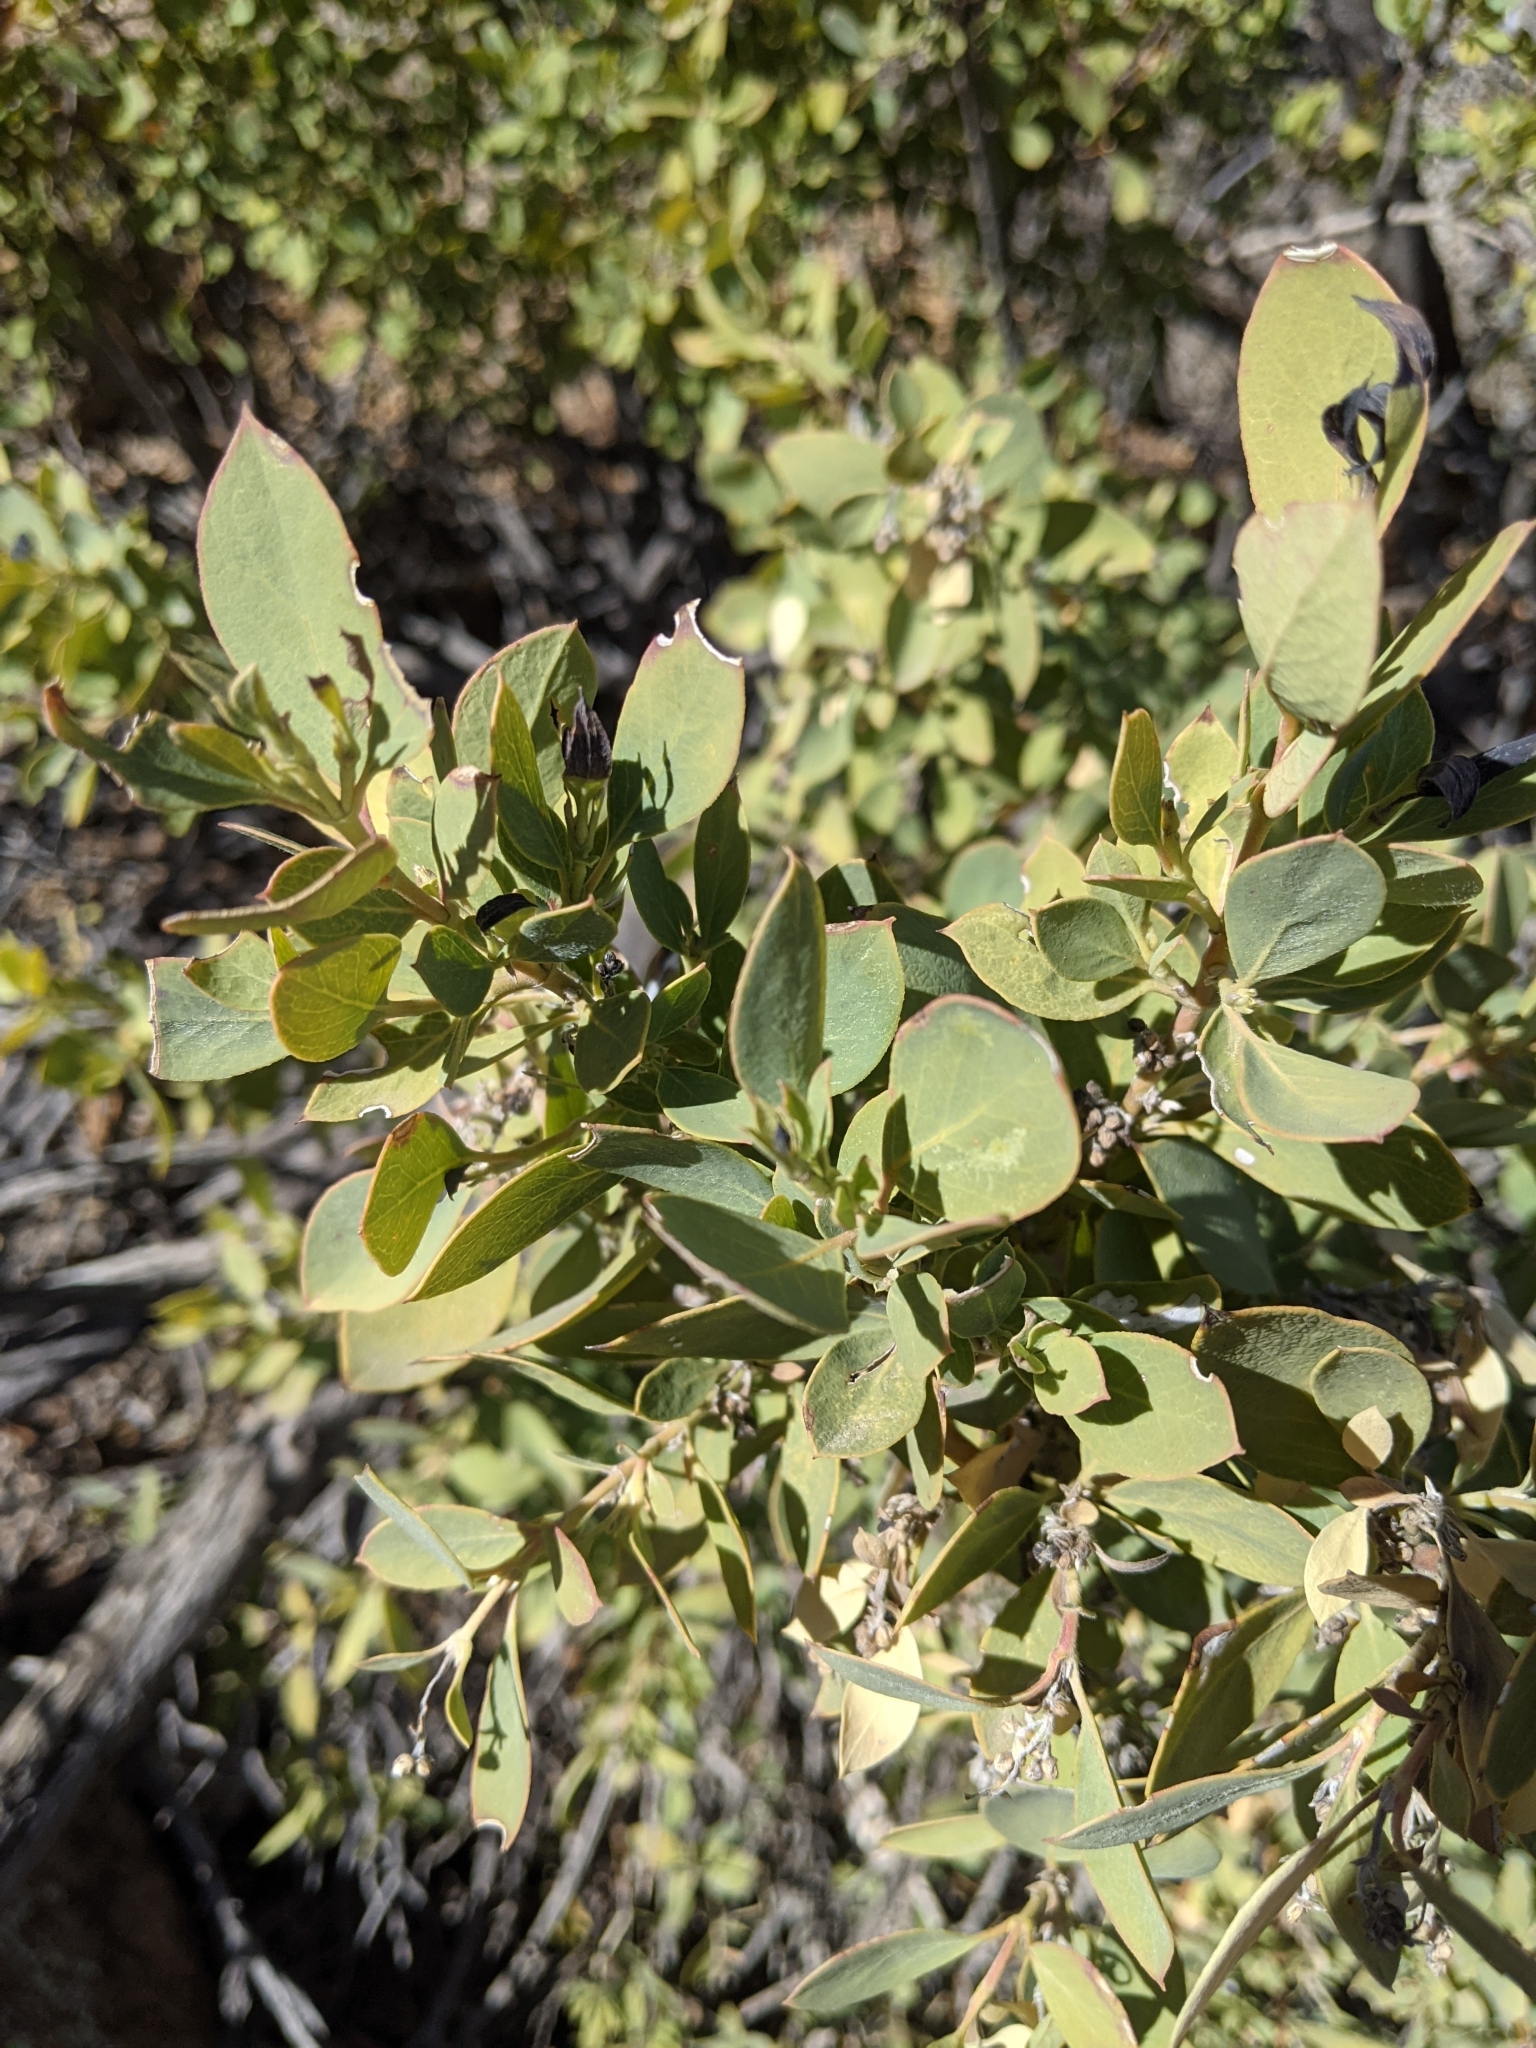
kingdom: Plantae
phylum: Tracheophyta
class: Magnoliopsida
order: Garryales
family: Garryaceae
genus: Garrya
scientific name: Garrya wrightii
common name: Wright's silktassel
